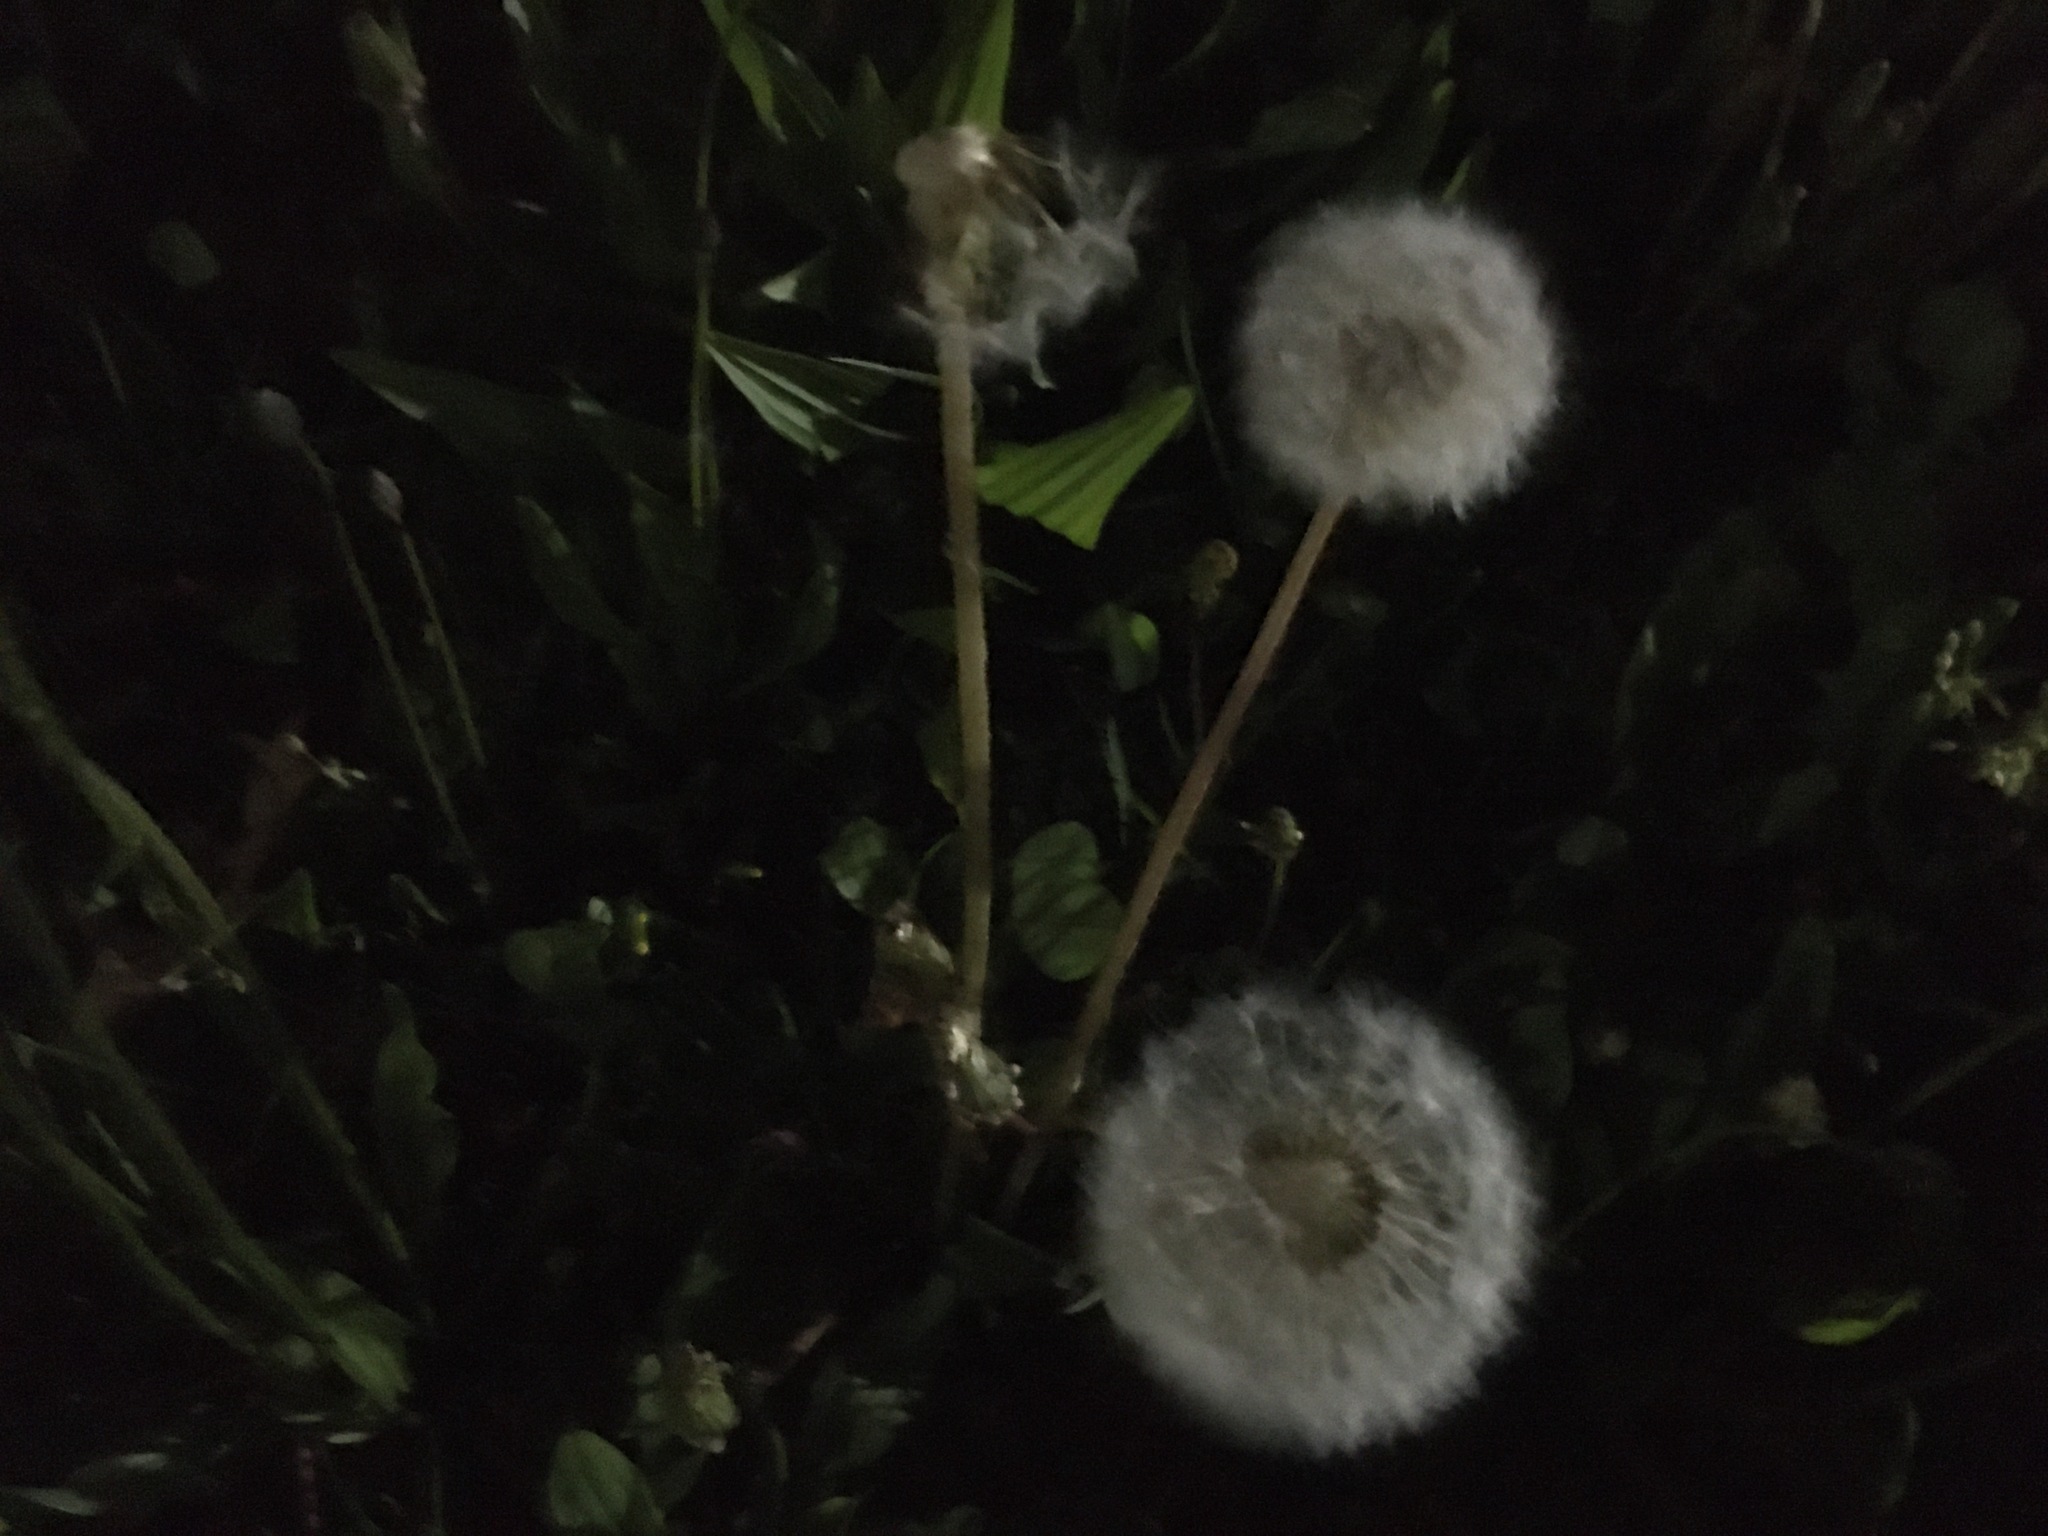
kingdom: Plantae
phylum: Tracheophyta
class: Magnoliopsida
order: Asterales
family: Asteraceae
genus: Taraxacum
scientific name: Taraxacum officinale
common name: Common dandelion
